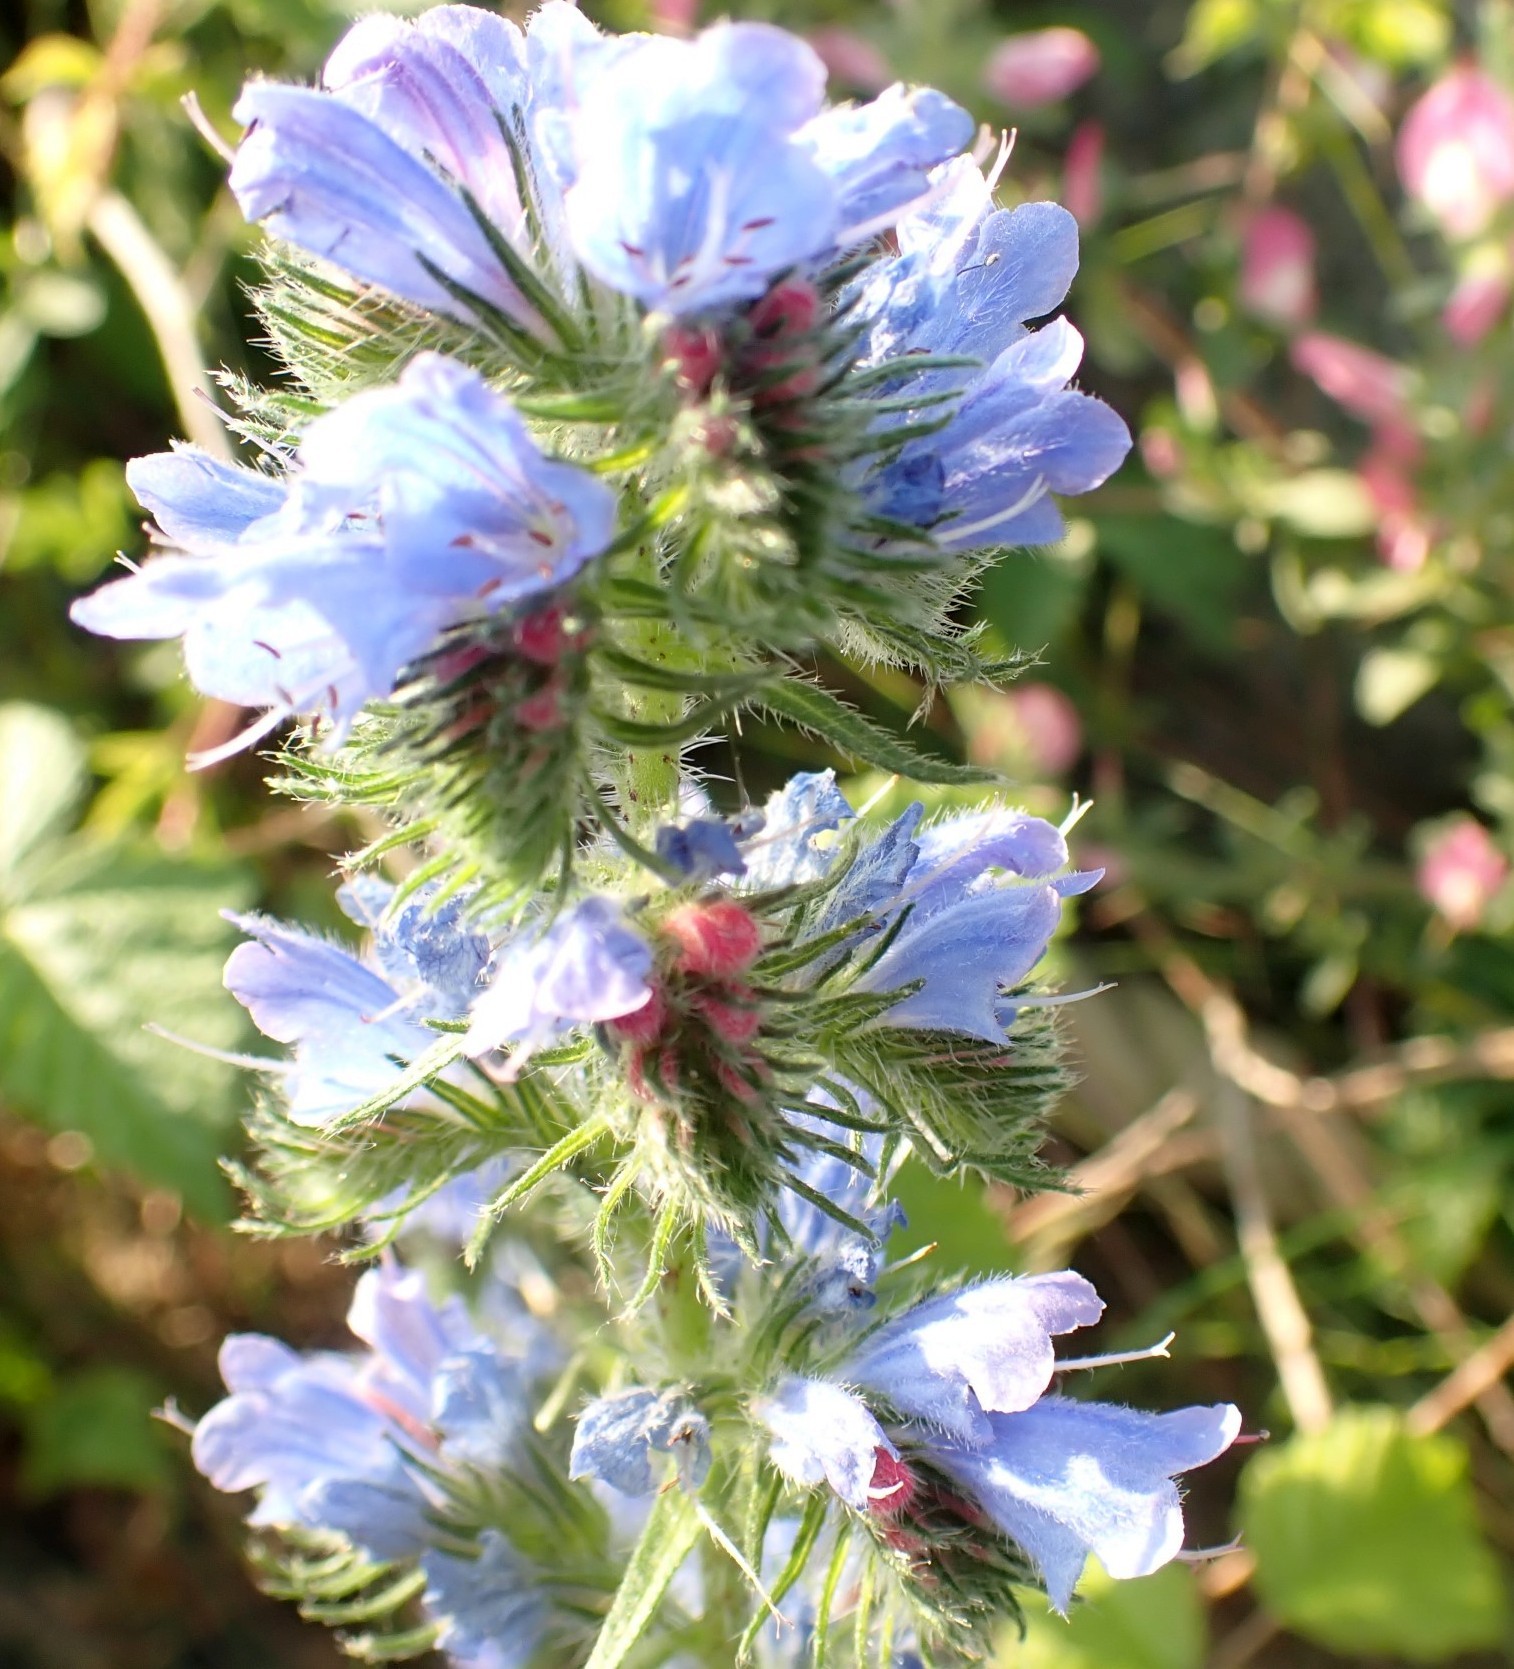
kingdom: Plantae
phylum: Tracheophyta
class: Magnoliopsida
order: Boraginales
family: Boraginaceae
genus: Echium
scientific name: Echium vulgare
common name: Common viper's bugloss
